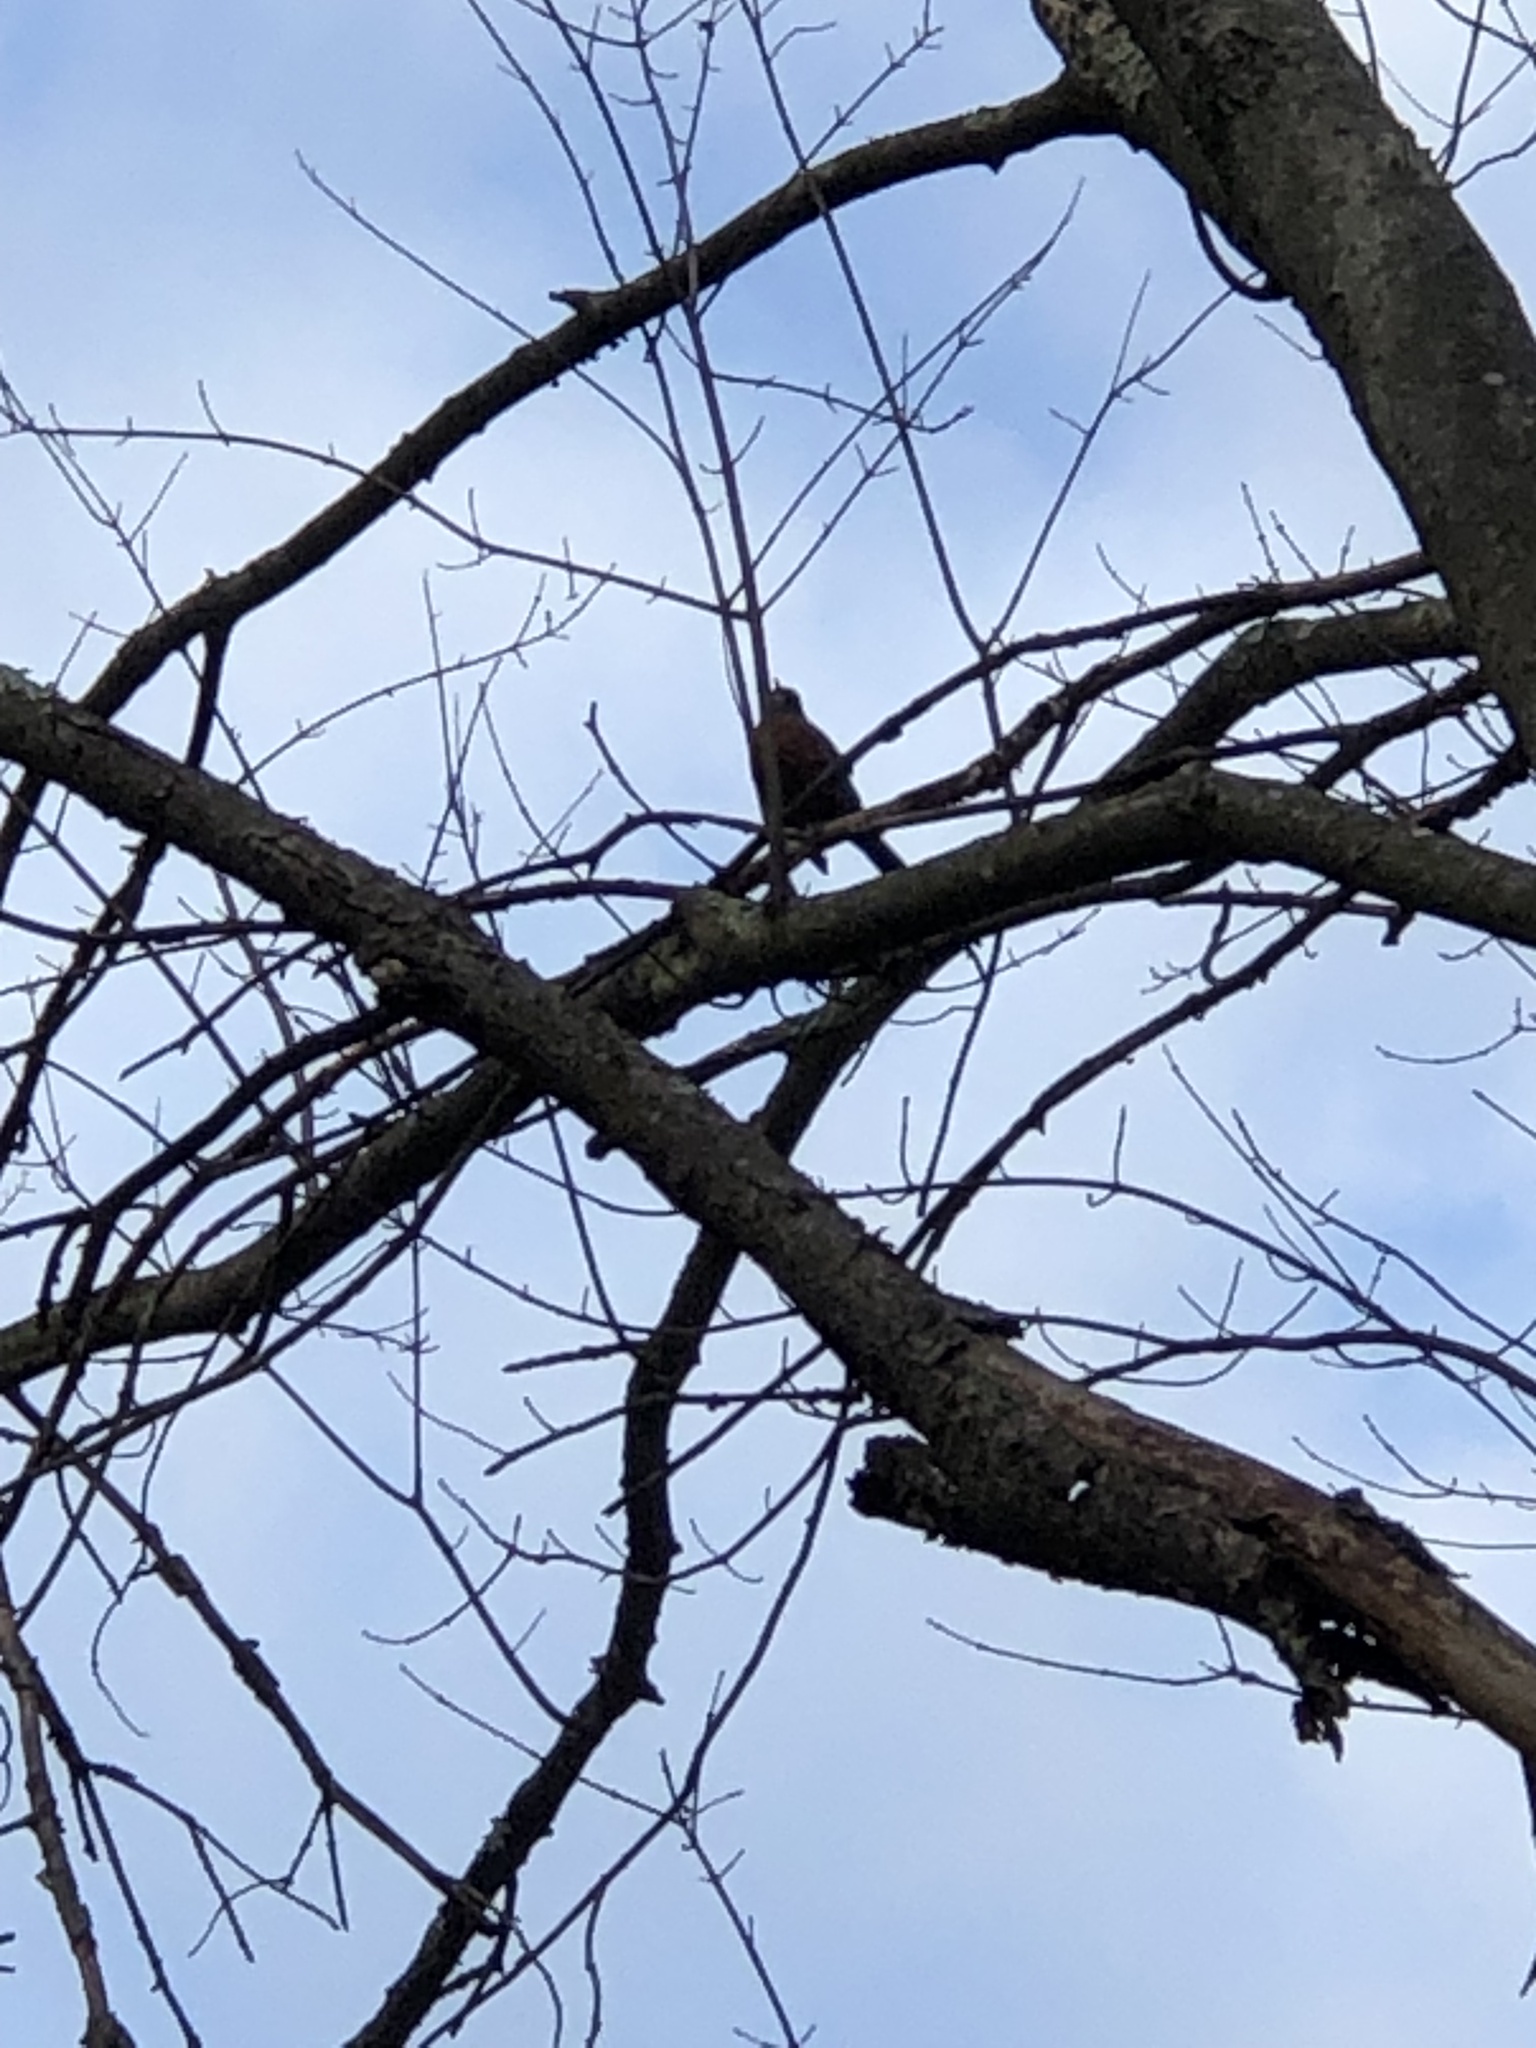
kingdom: Animalia
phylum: Chordata
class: Aves
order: Passeriformes
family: Turdidae
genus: Turdus
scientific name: Turdus migratorius
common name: American robin
